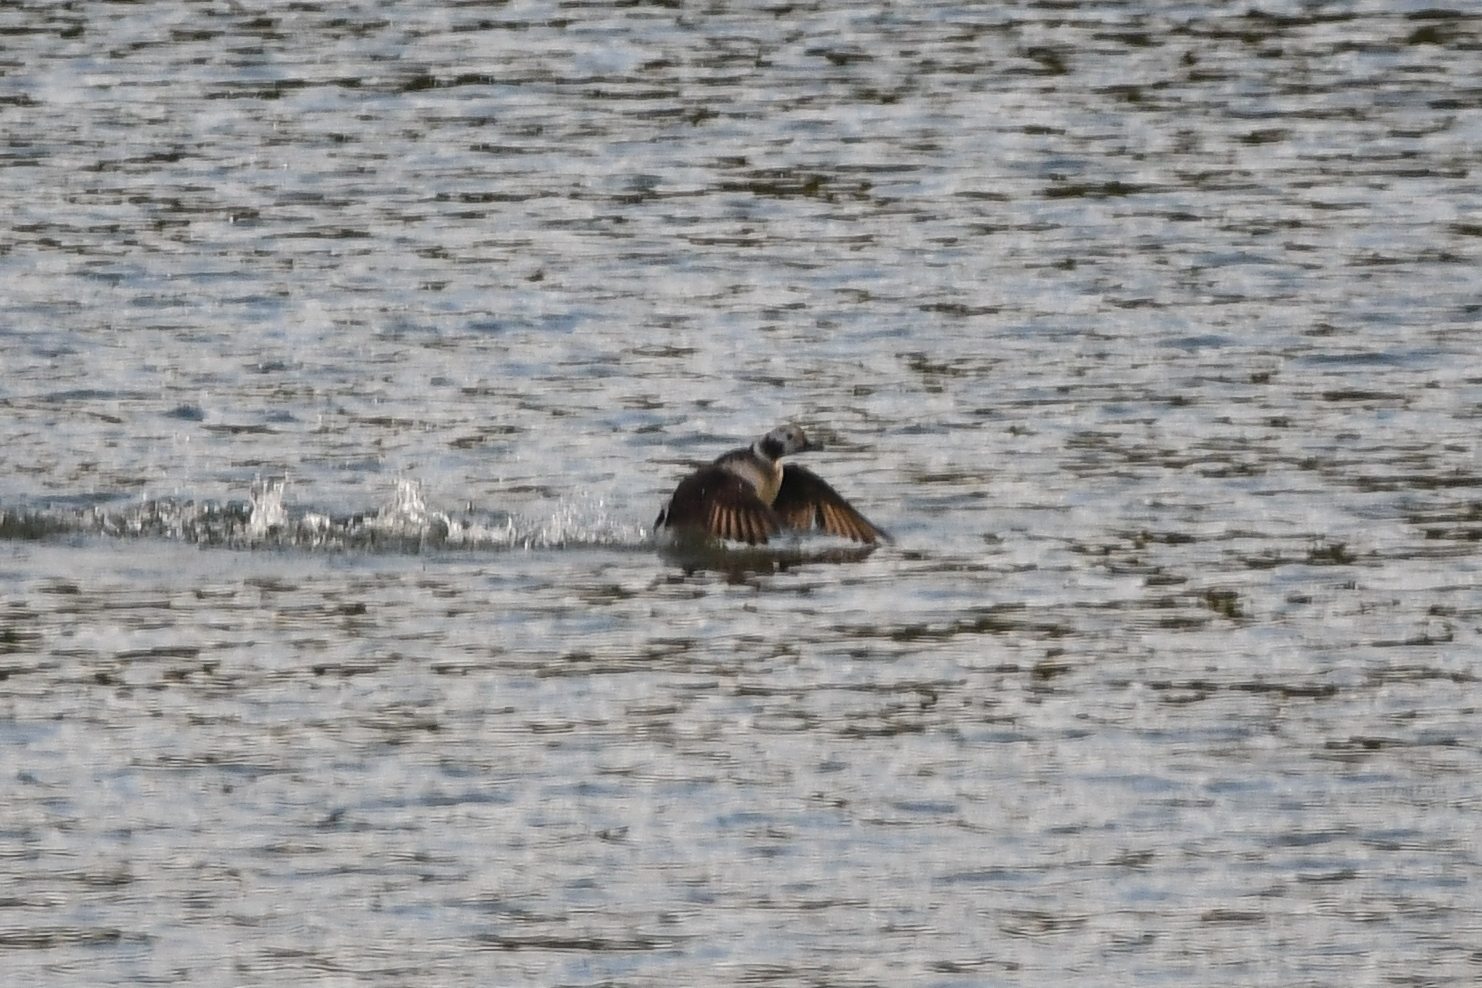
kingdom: Animalia
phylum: Chordata
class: Aves
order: Anseriformes
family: Anatidae
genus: Clangula
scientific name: Clangula hyemalis
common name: Long-tailed duck
